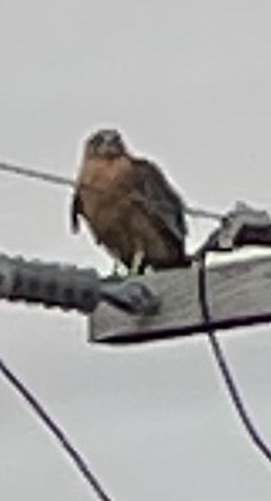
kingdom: Animalia
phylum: Chordata
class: Aves
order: Accipitriformes
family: Accipitridae
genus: Buteo
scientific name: Buteo lineatus
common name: Red-shouldered hawk
